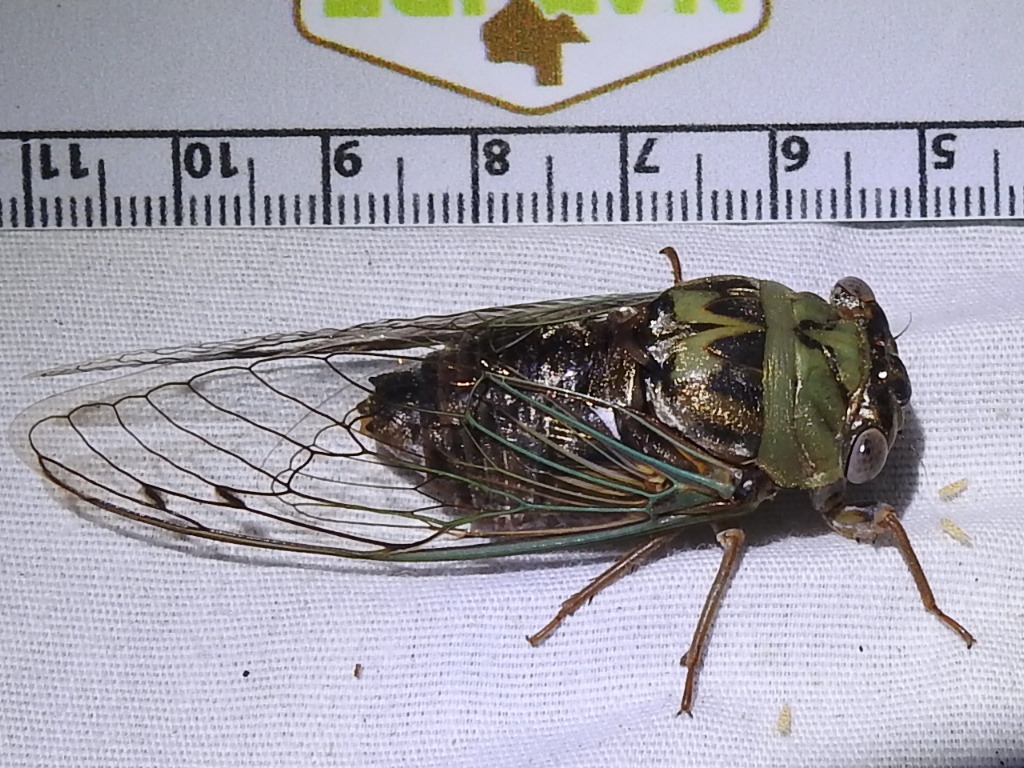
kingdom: Animalia
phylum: Arthropoda
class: Insecta
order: Hemiptera
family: Cicadidae
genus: Megatibicen
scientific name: Megatibicen resh
